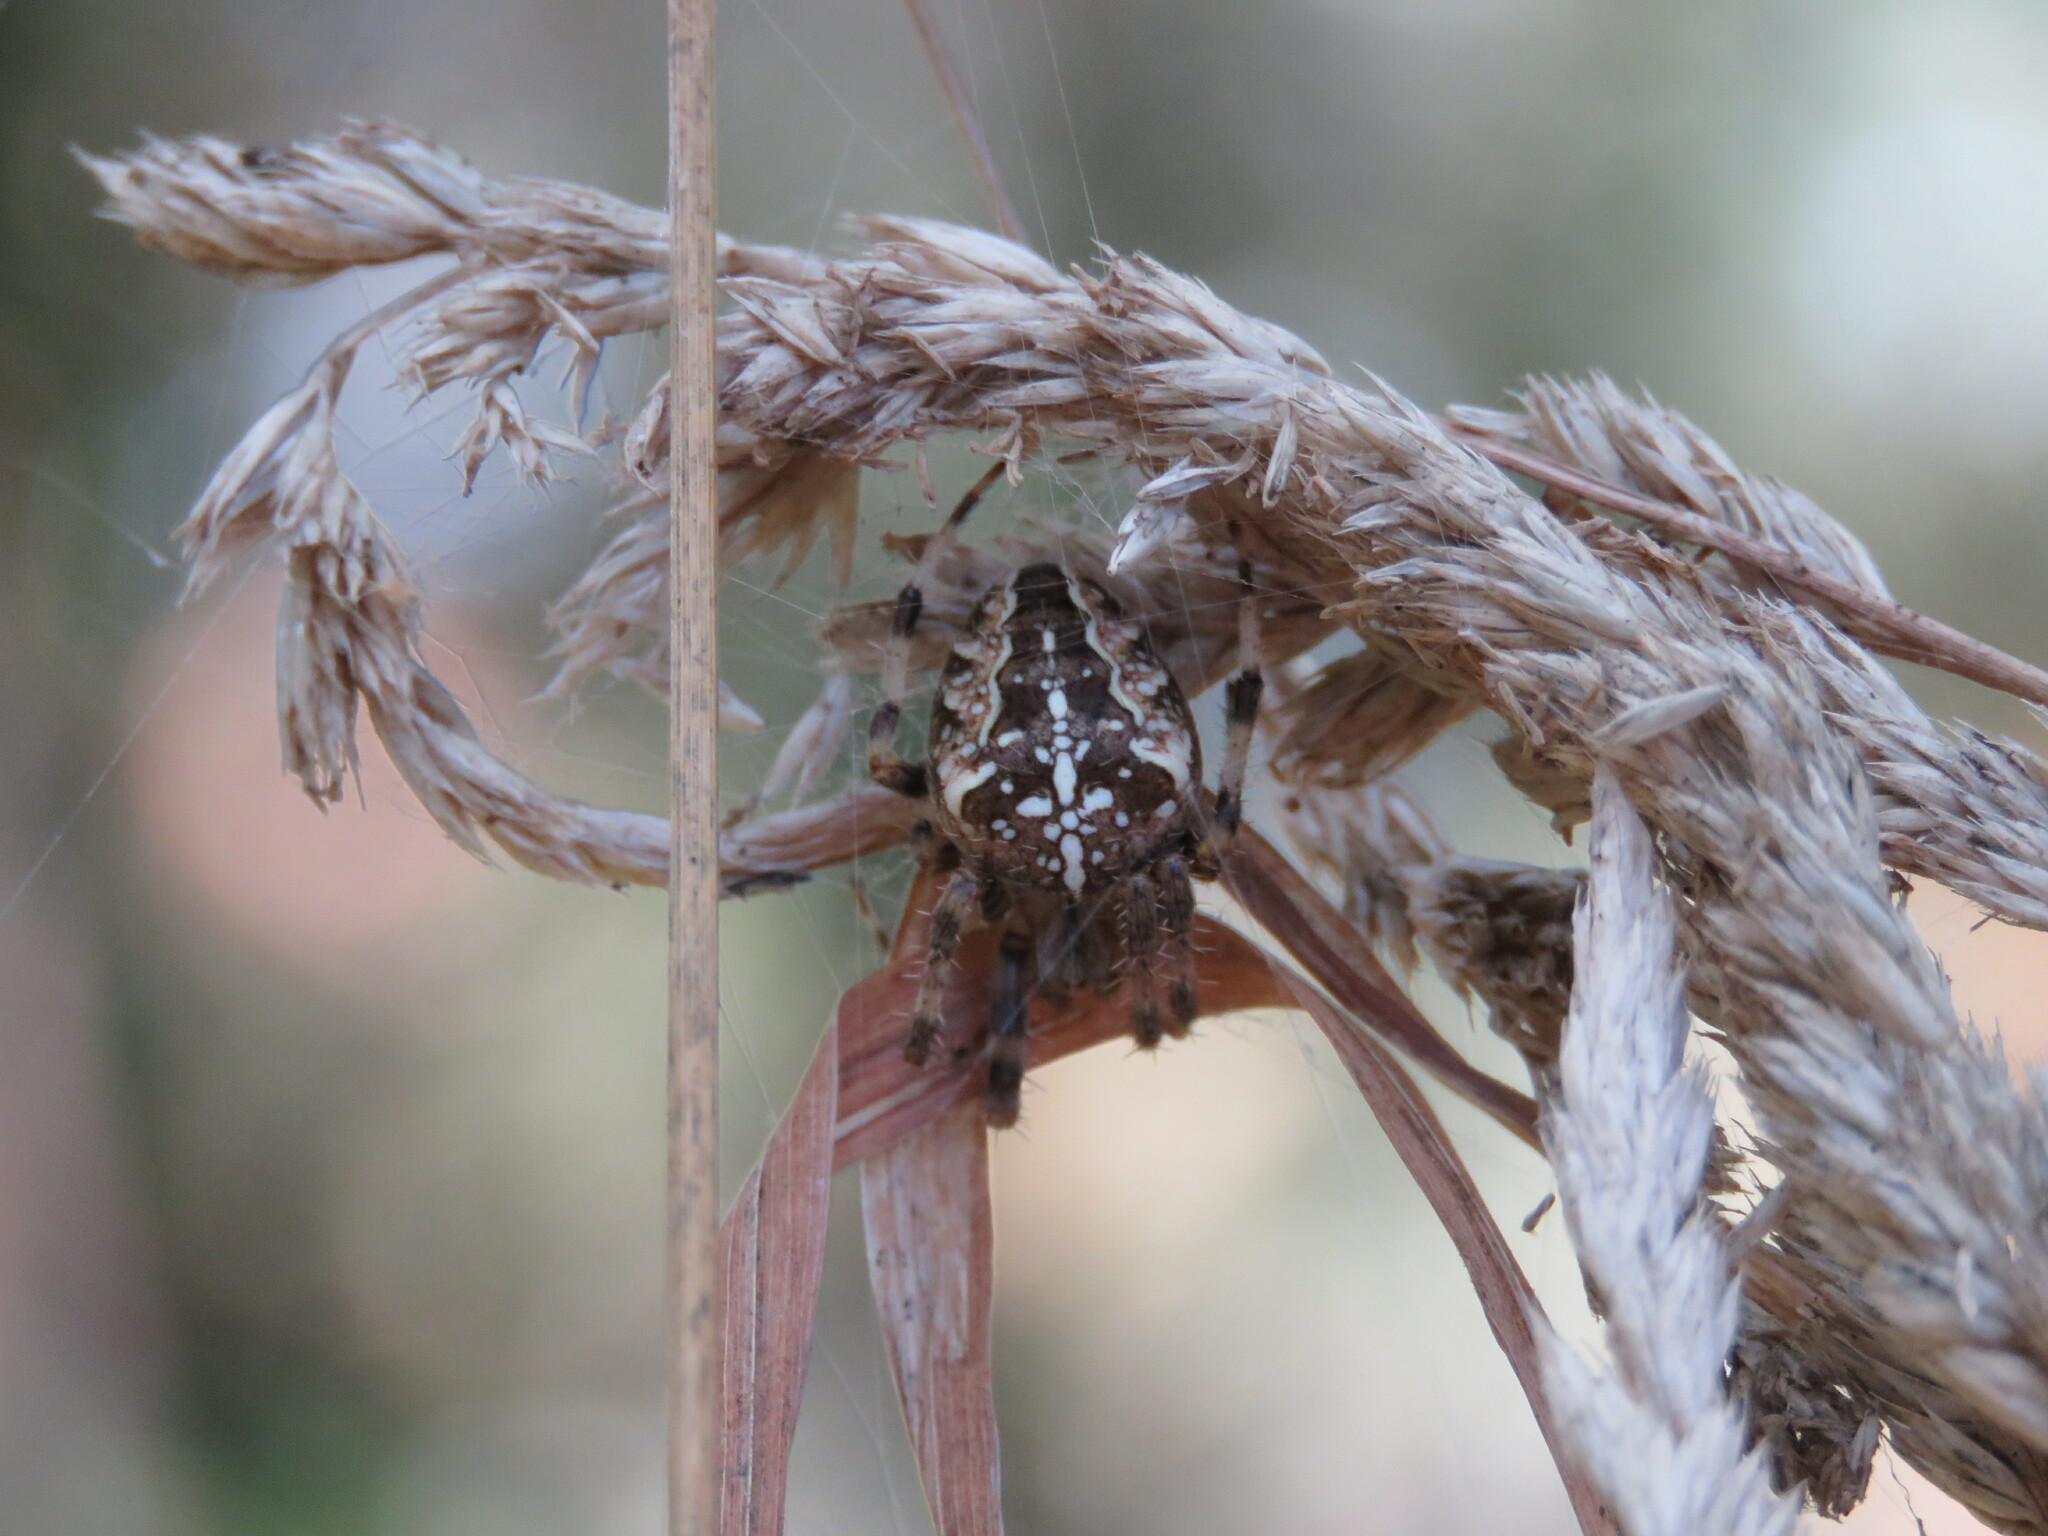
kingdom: Animalia
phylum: Arthropoda
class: Arachnida
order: Araneae
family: Araneidae
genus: Araneus
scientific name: Araneus diadematus
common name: Cross orbweaver
